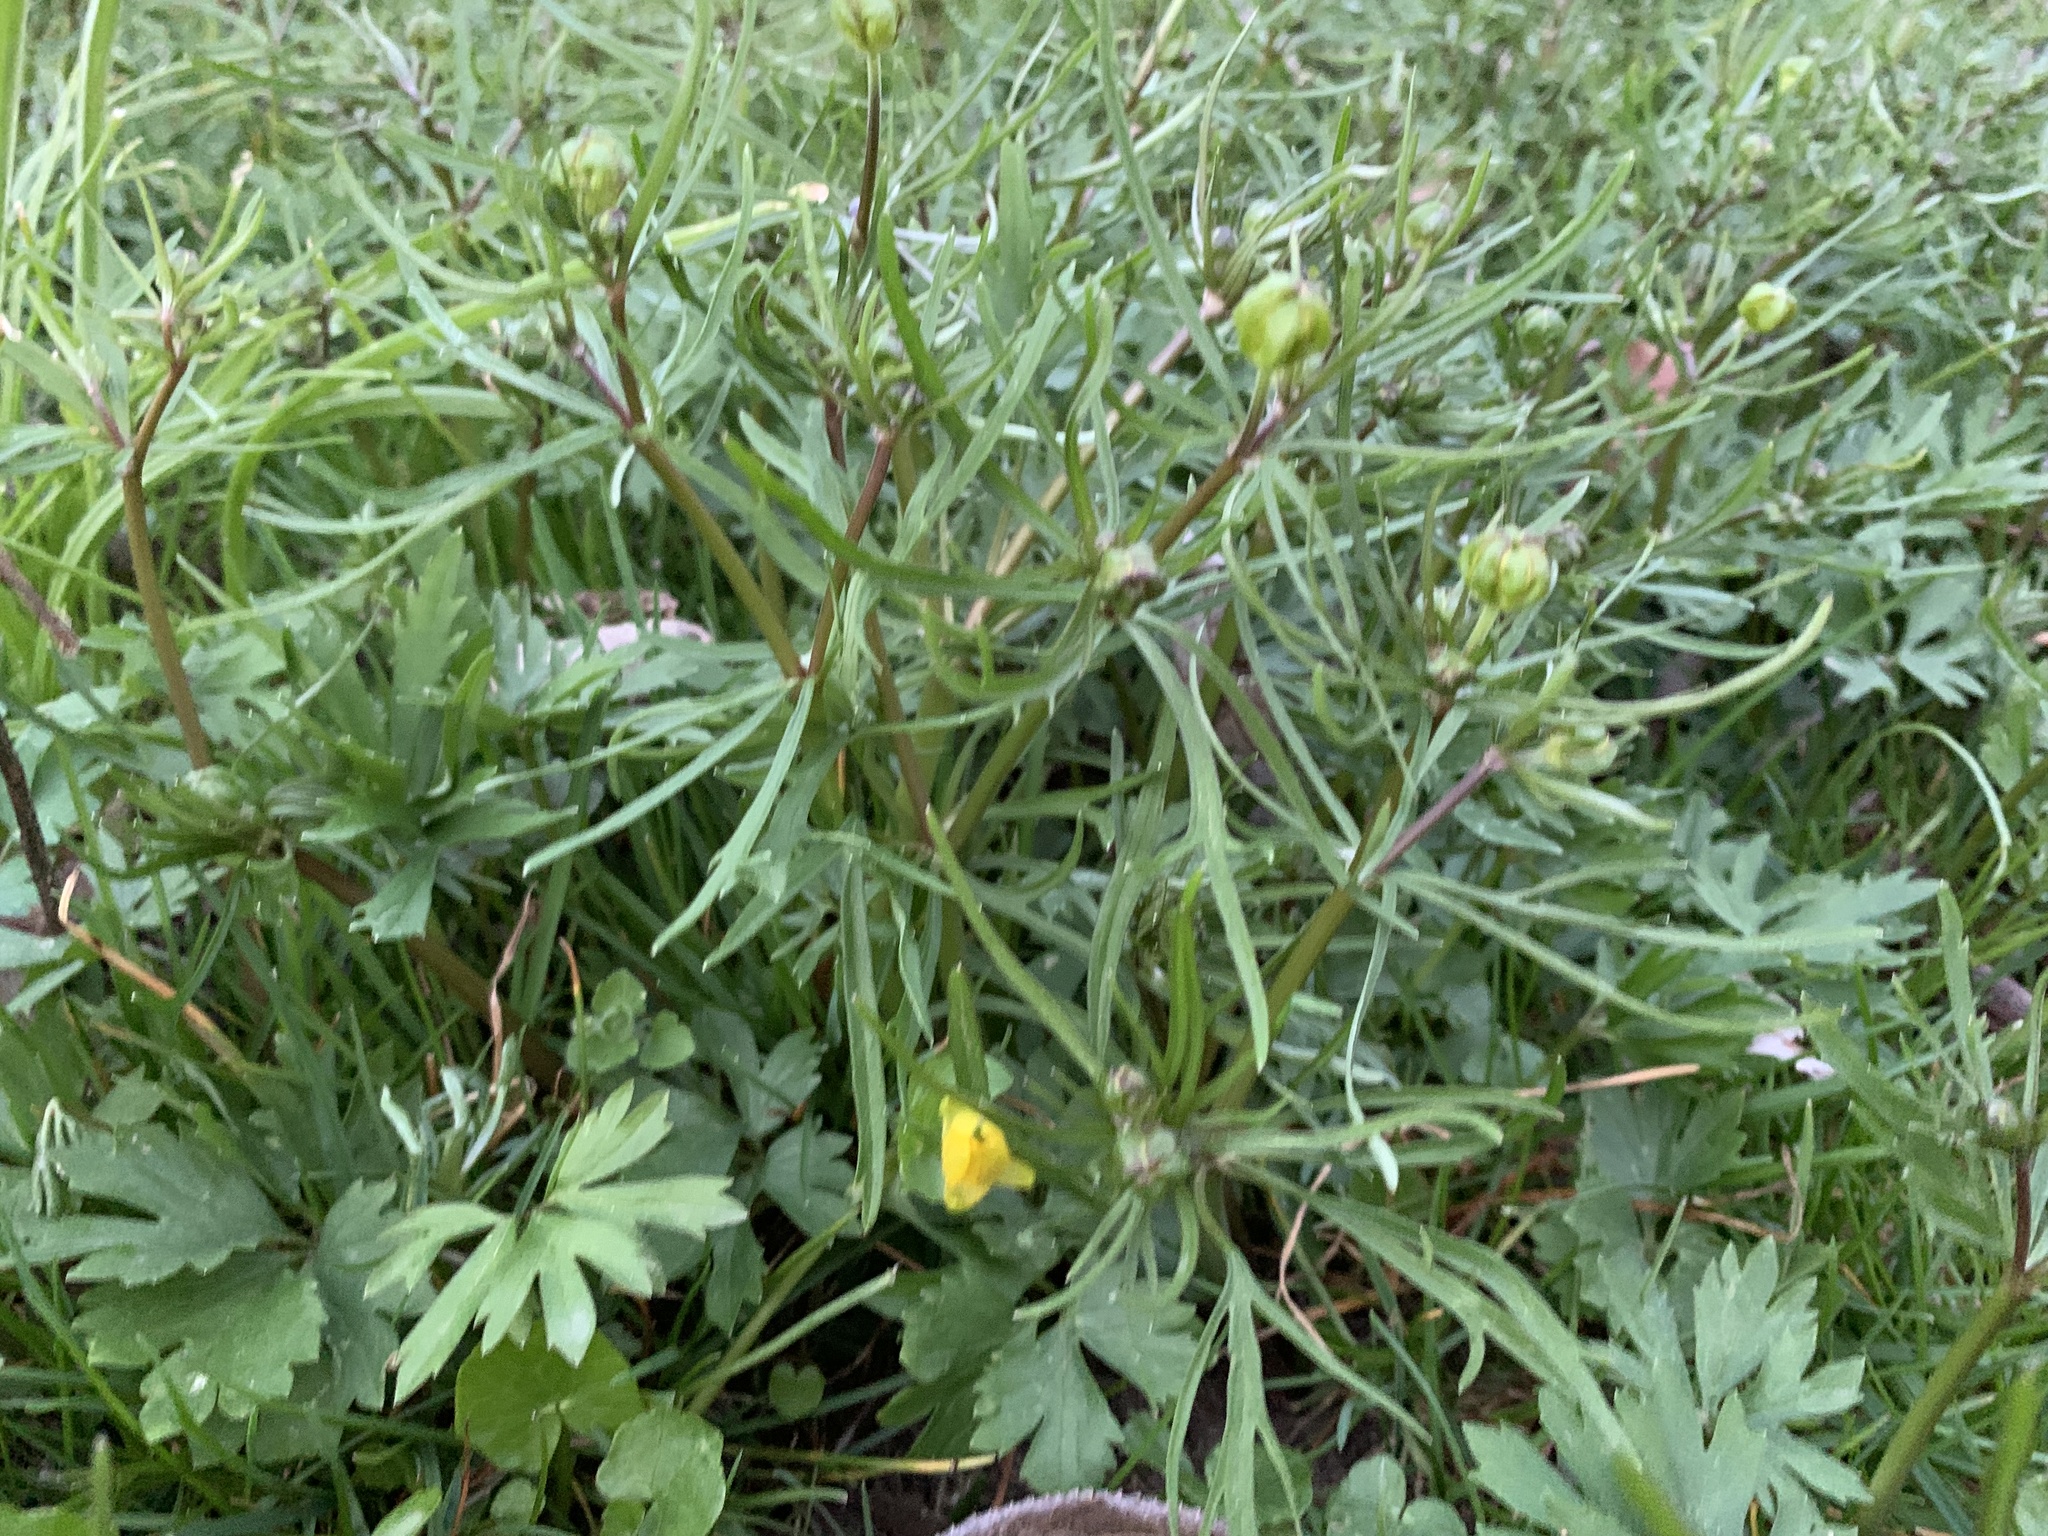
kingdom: Plantae
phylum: Tracheophyta
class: Magnoliopsida
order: Ranunculales
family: Ranunculaceae
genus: Ranunculus
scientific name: Ranunculus auricomus
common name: Goldilocks buttercup
